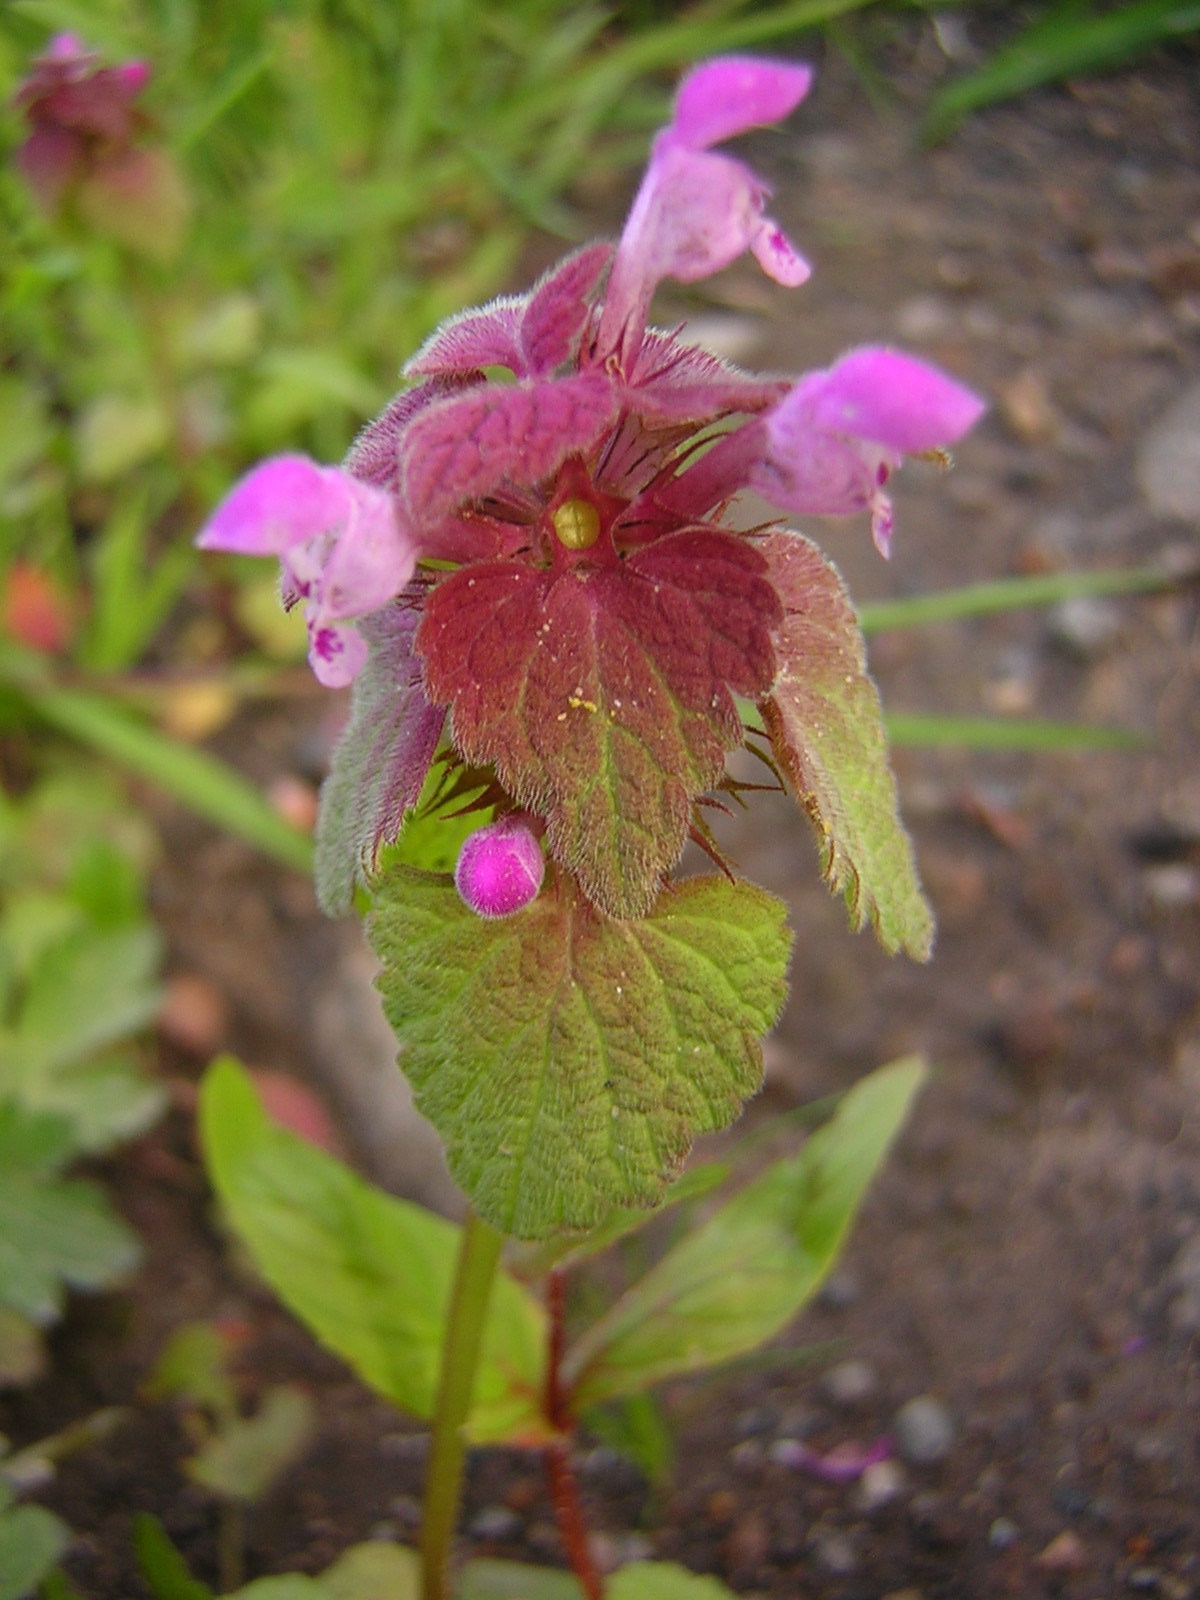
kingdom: Plantae
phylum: Tracheophyta
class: Magnoliopsida
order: Lamiales
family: Lamiaceae
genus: Lamium
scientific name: Lamium purpureum
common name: Red dead-nettle
